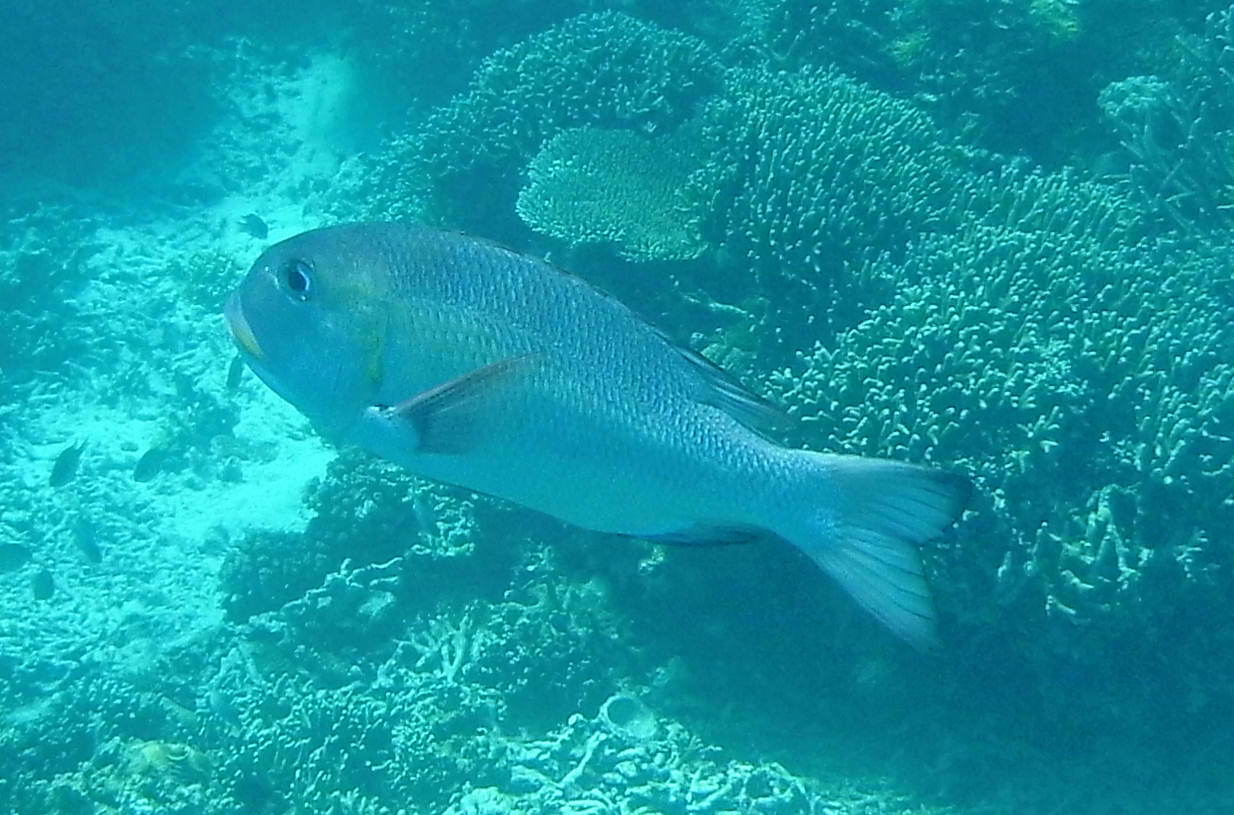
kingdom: Animalia
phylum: Chordata
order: Perciformes
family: Lethrinidae
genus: Monotaxis
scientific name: Monotaxis grandoculis
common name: Bigeye emperor
